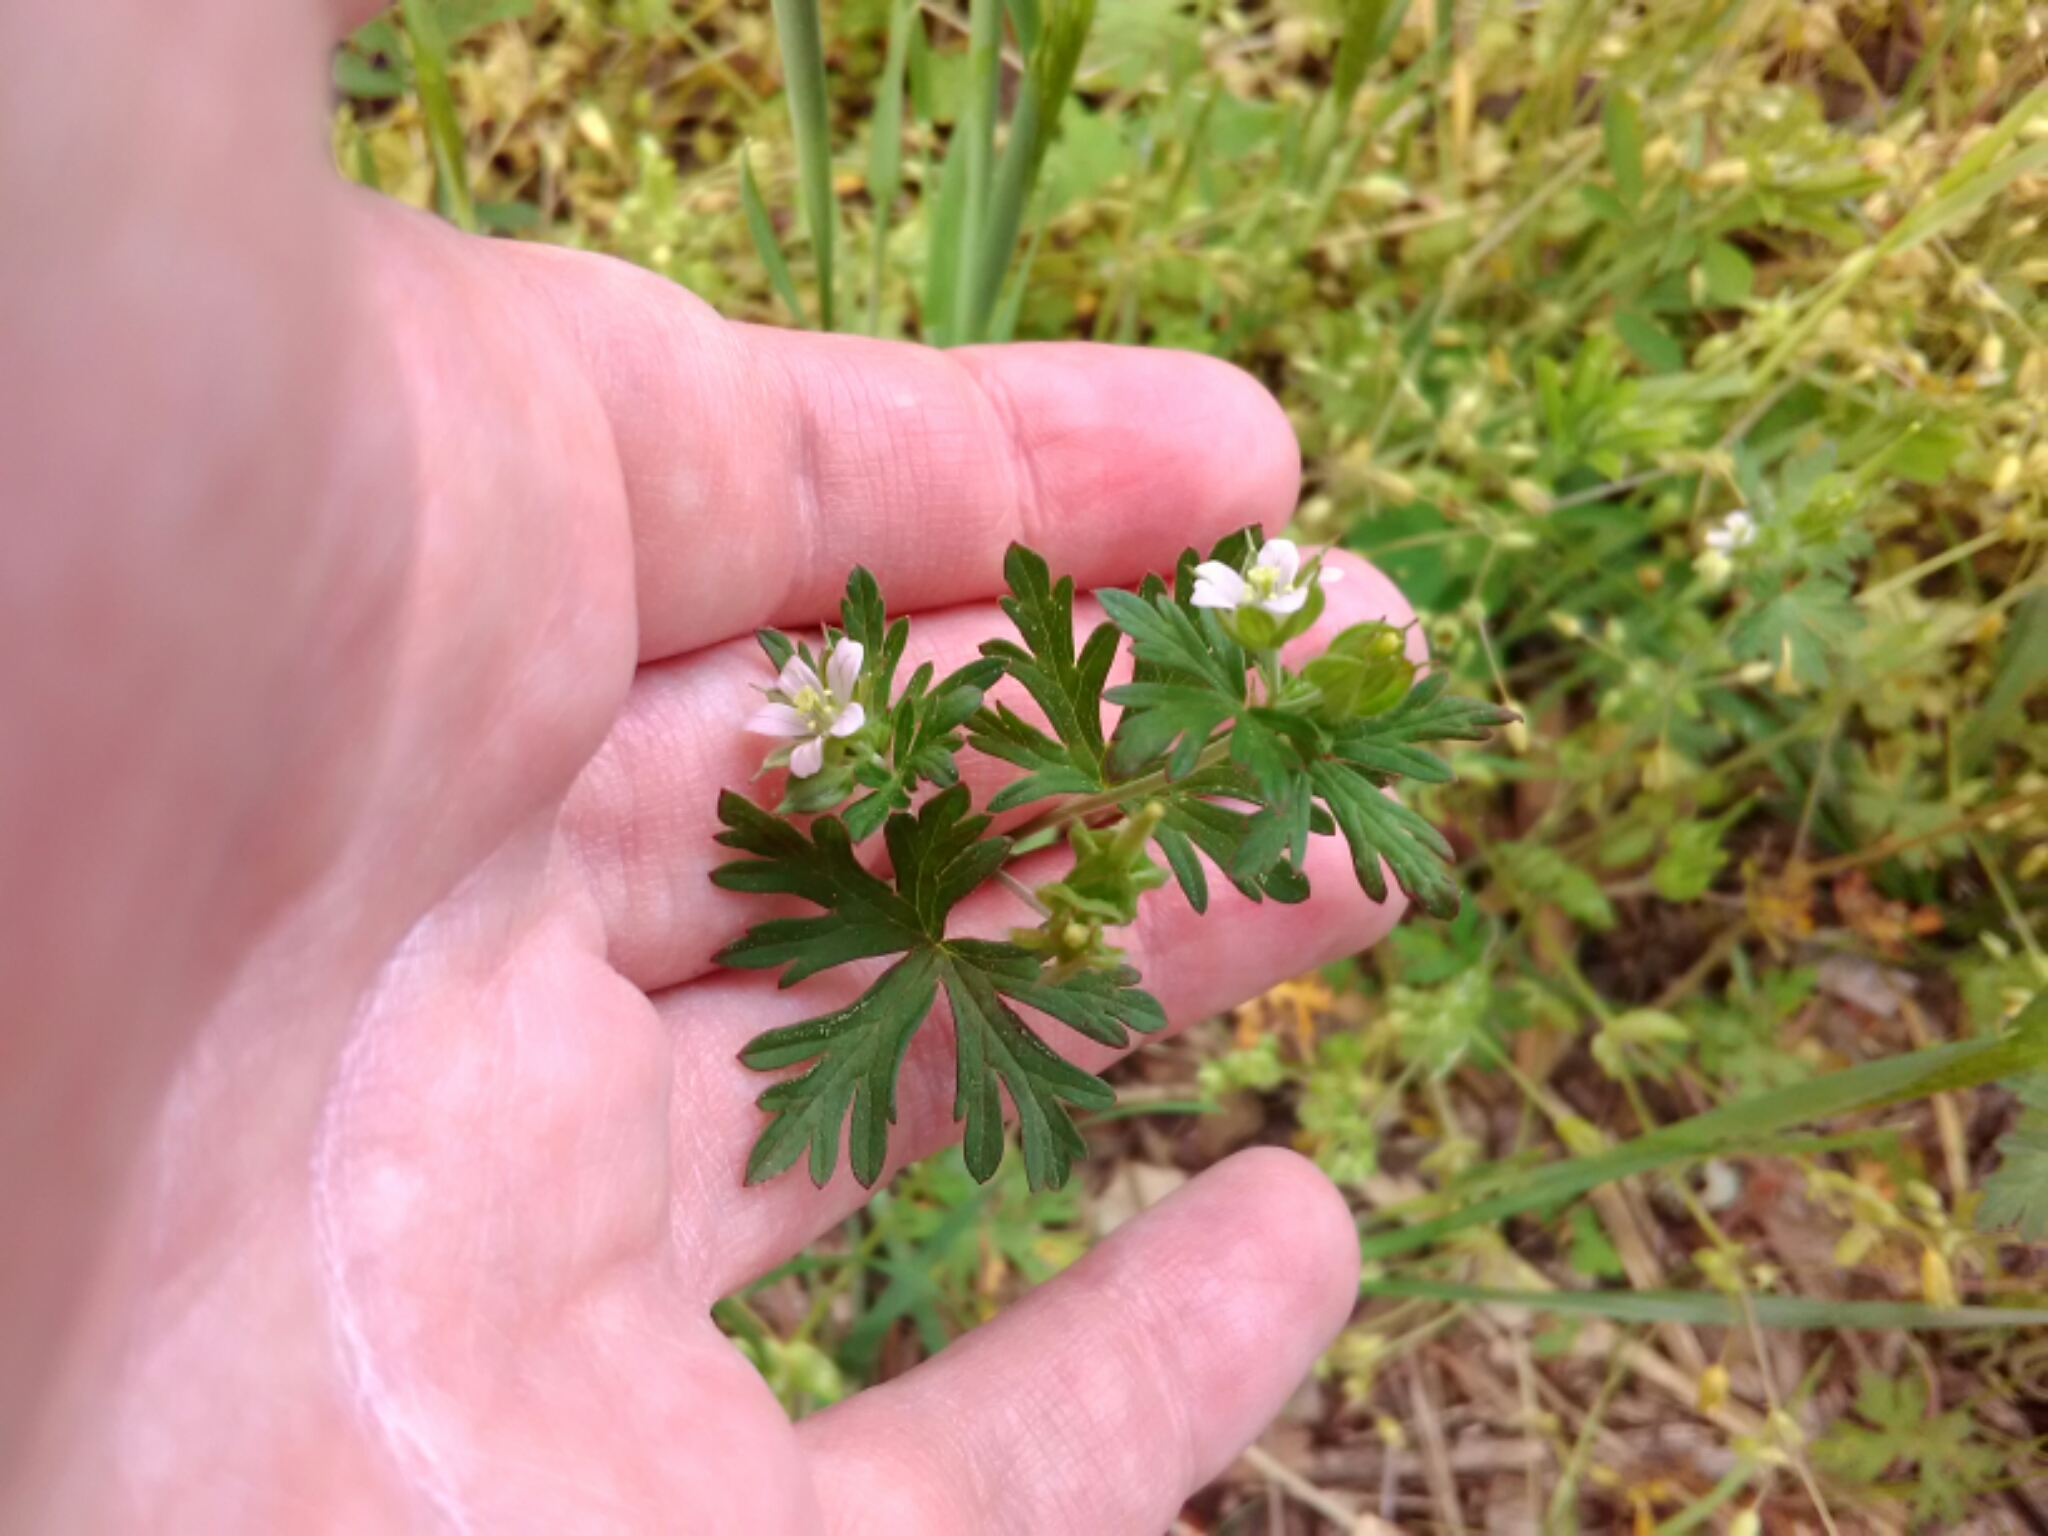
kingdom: Plantae
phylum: Tracheophyta
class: Magnoliopsida
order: Geraniales
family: Geraniaceae
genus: Geranium
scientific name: Geranium carolinianum
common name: Carolina crane's-bill
